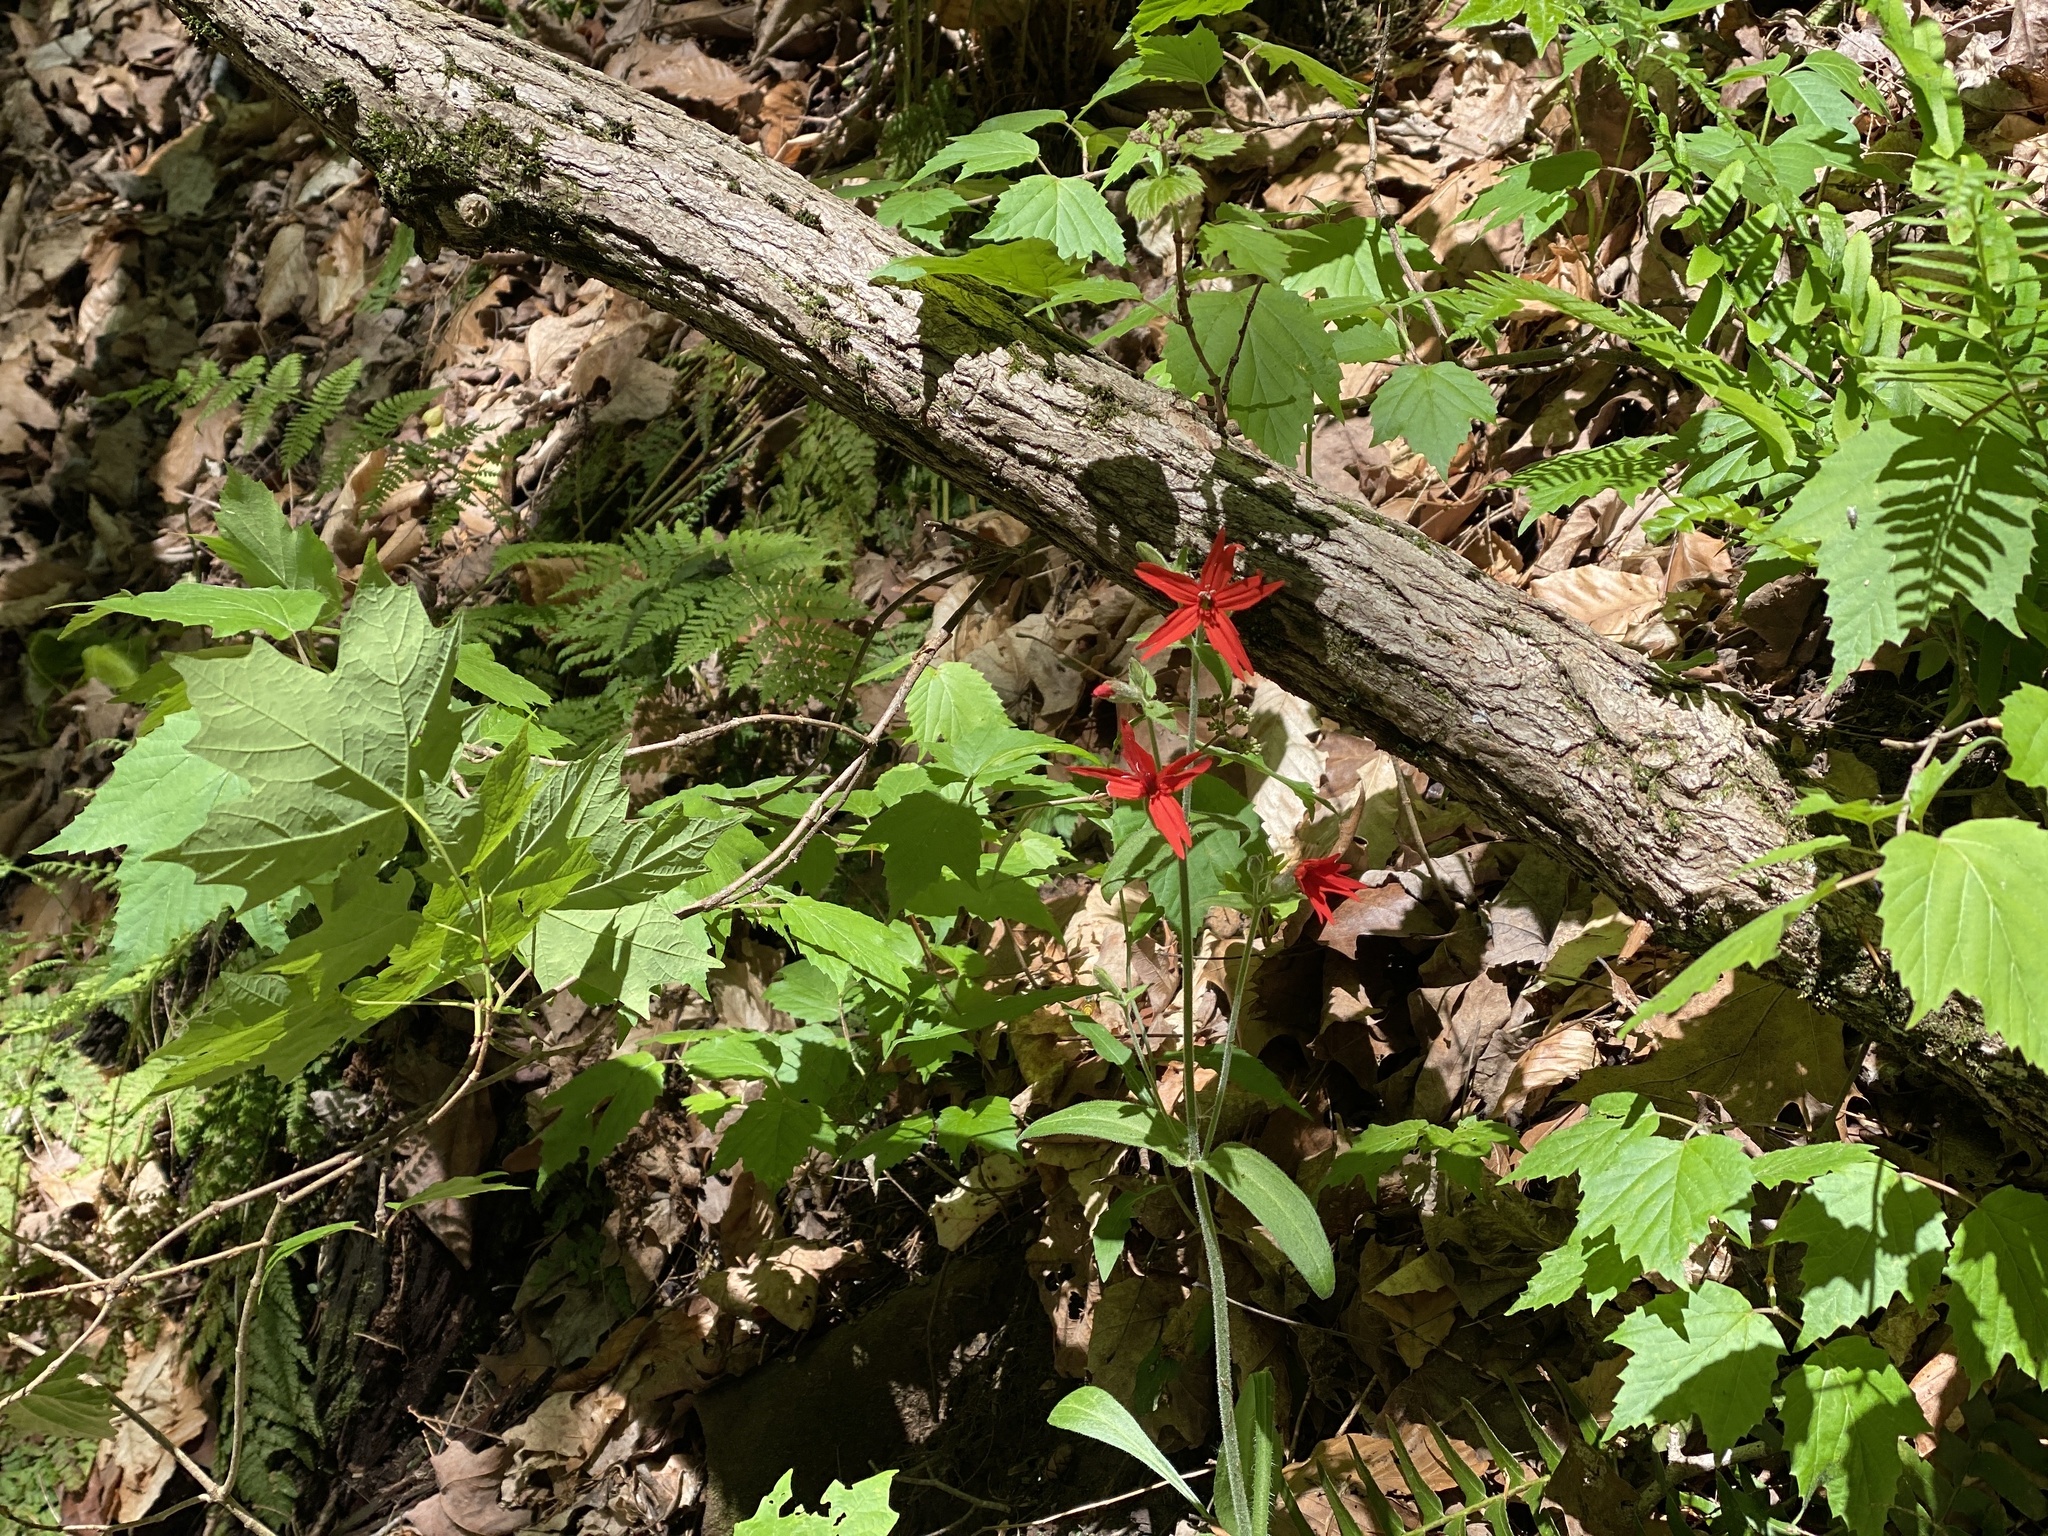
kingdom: Plantae
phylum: Tracheophyta
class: Magnoliopsida
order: Caryophyllales
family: Caryophyllaceae
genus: Silene
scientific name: Silene virginica
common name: Fire-pink
